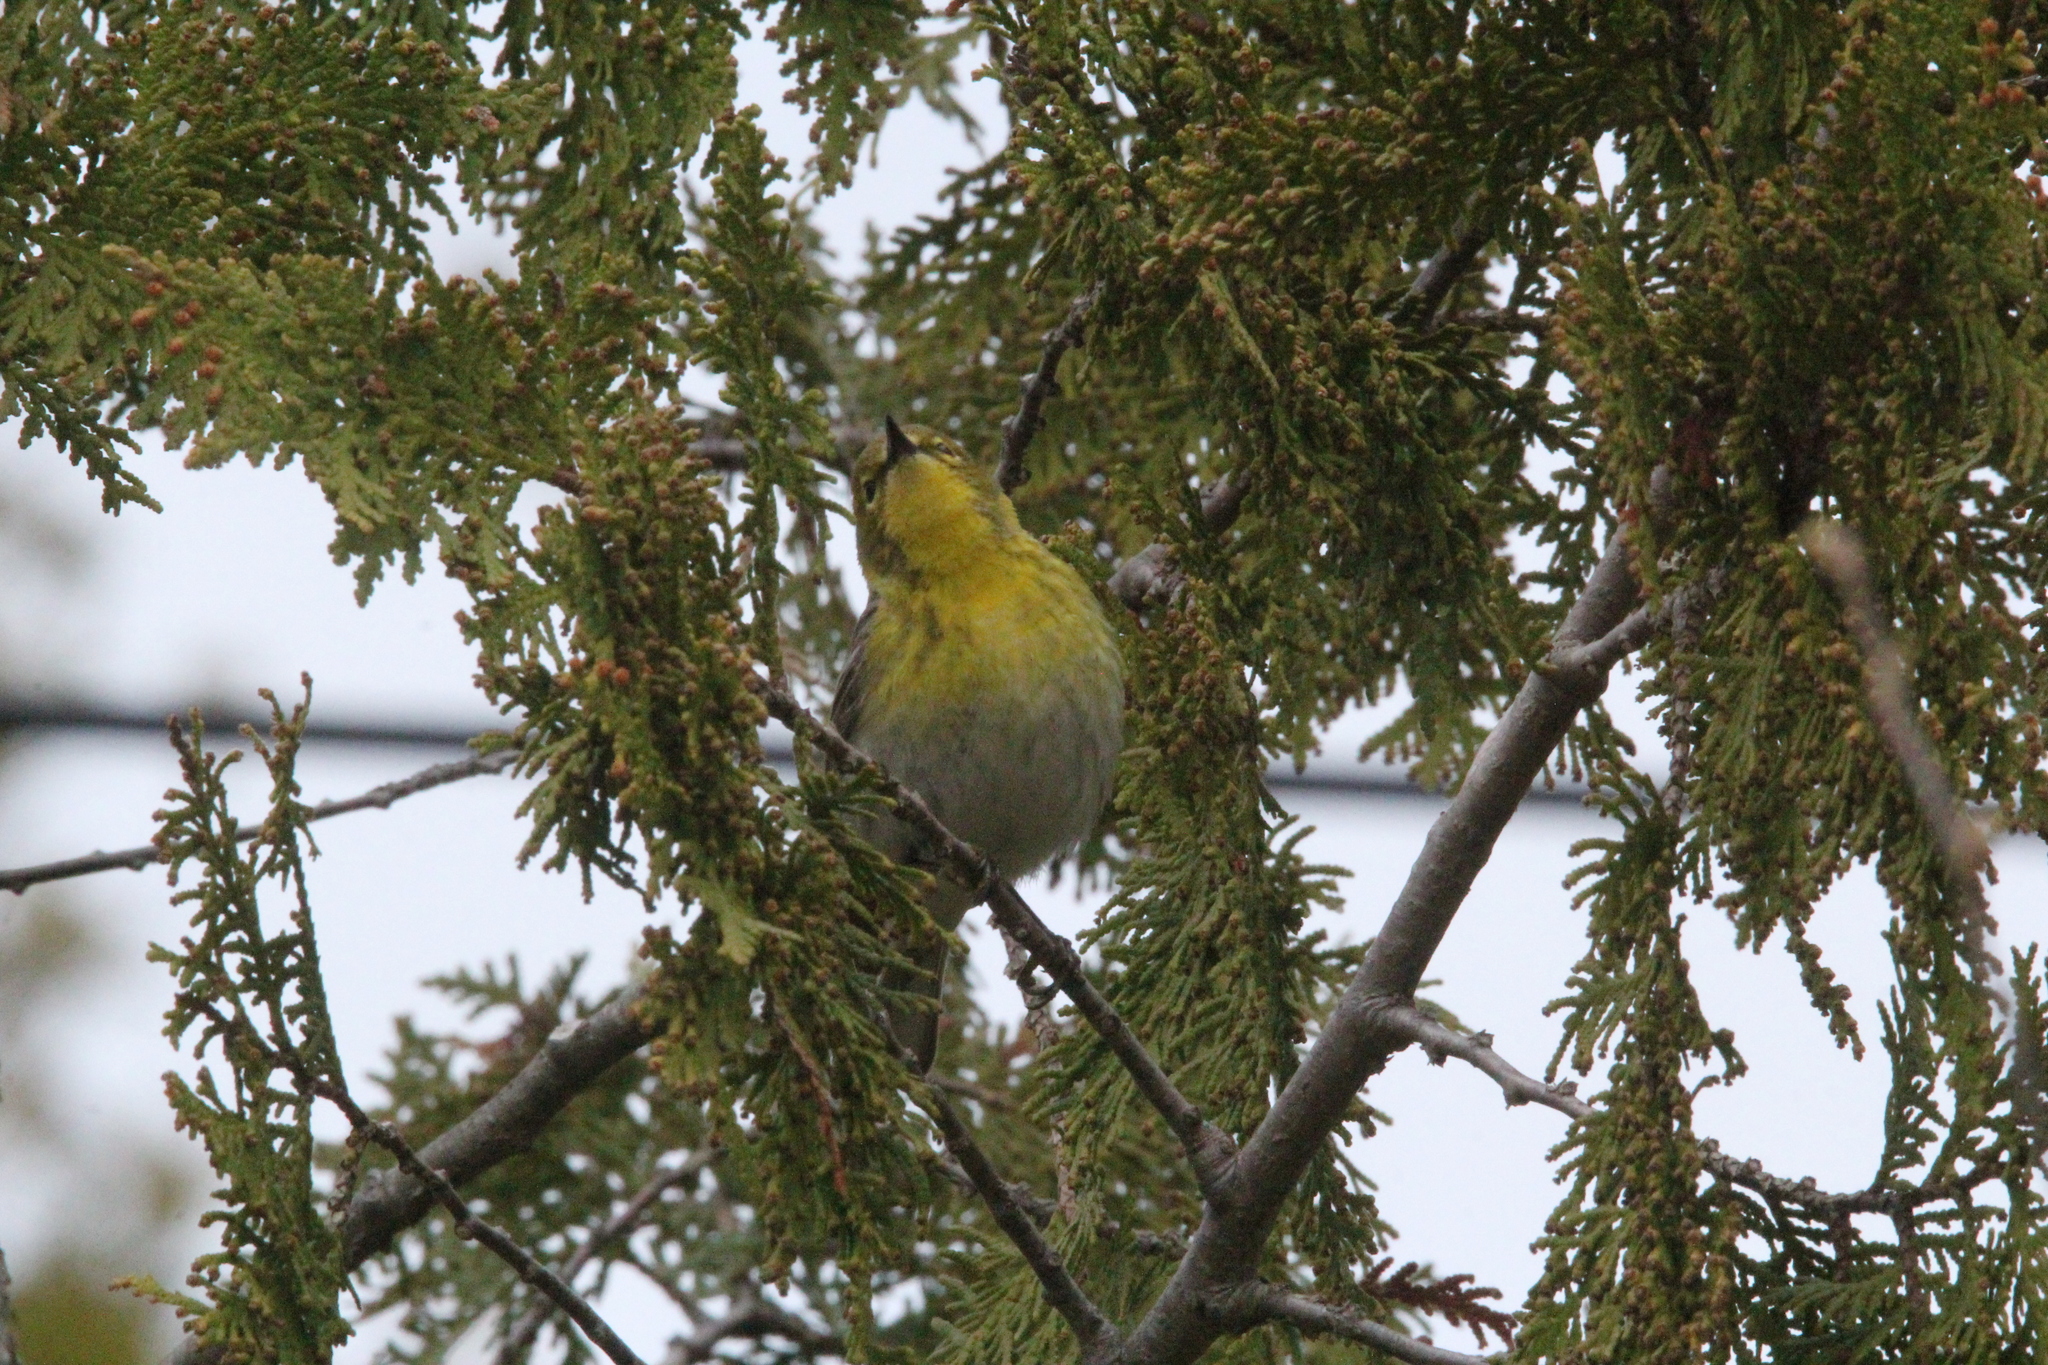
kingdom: Animalia
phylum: Chordata
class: Aves
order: Passeriformes
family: Parulidae
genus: Setophaga
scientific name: Setophaga pinus
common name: Pine warbler
